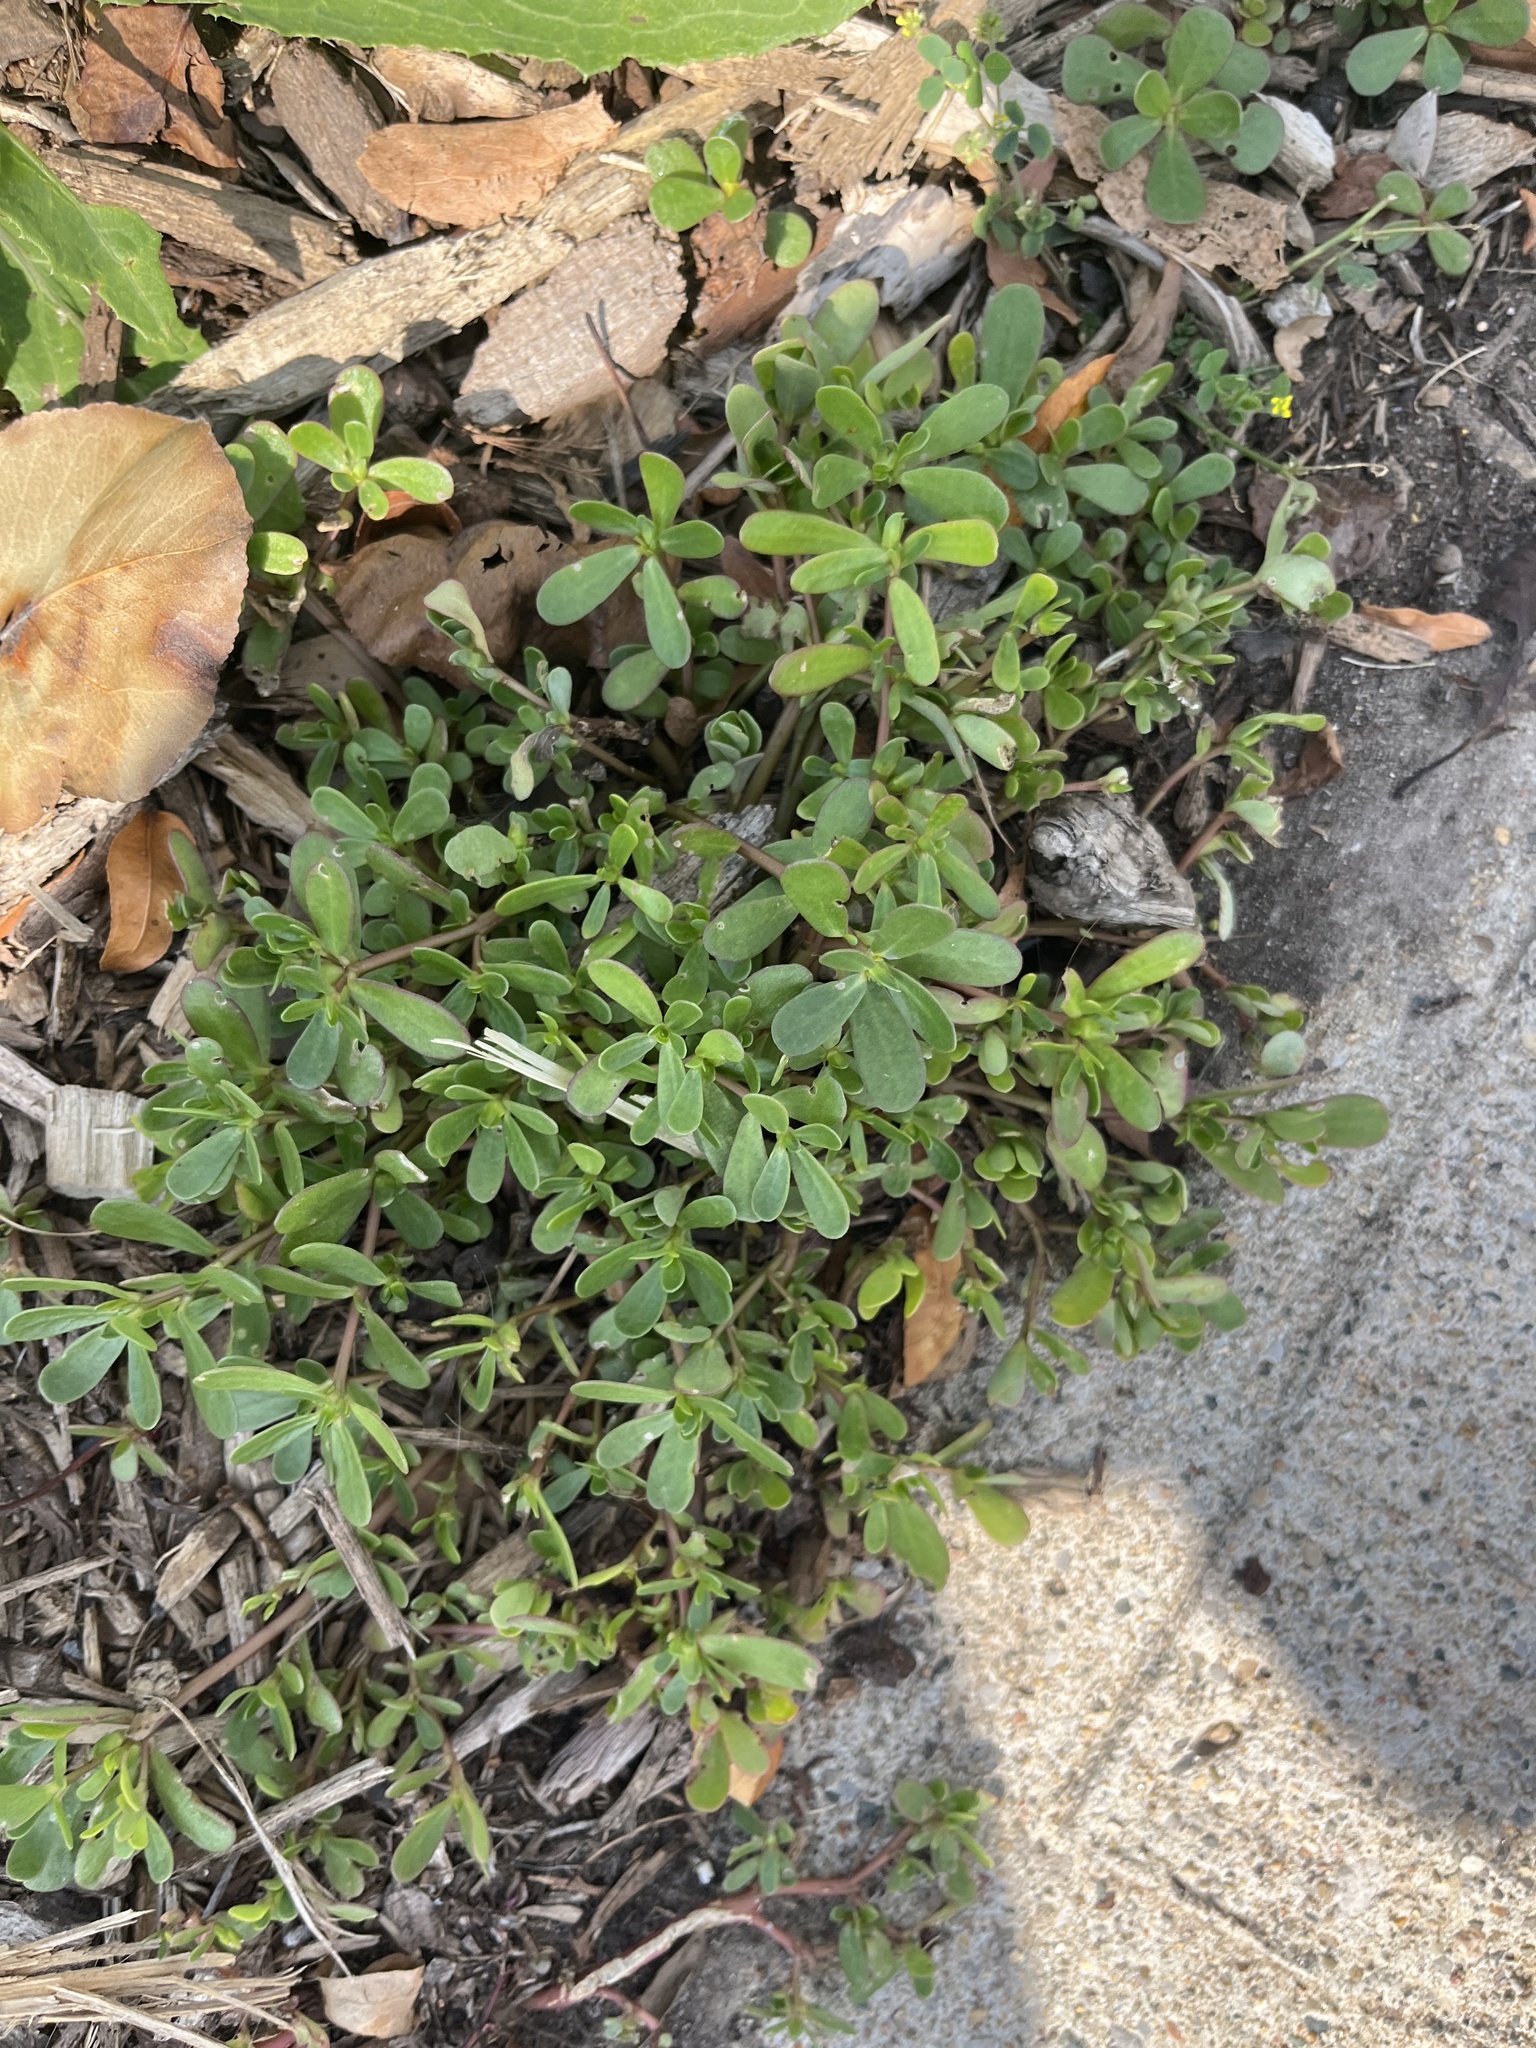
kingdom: Plantae
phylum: Tracheophyta
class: Magnoliopsida
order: Caryophyllales
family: Portulacaceae
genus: Portulaca
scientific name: Portulaca oleracea
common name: Common purslane
